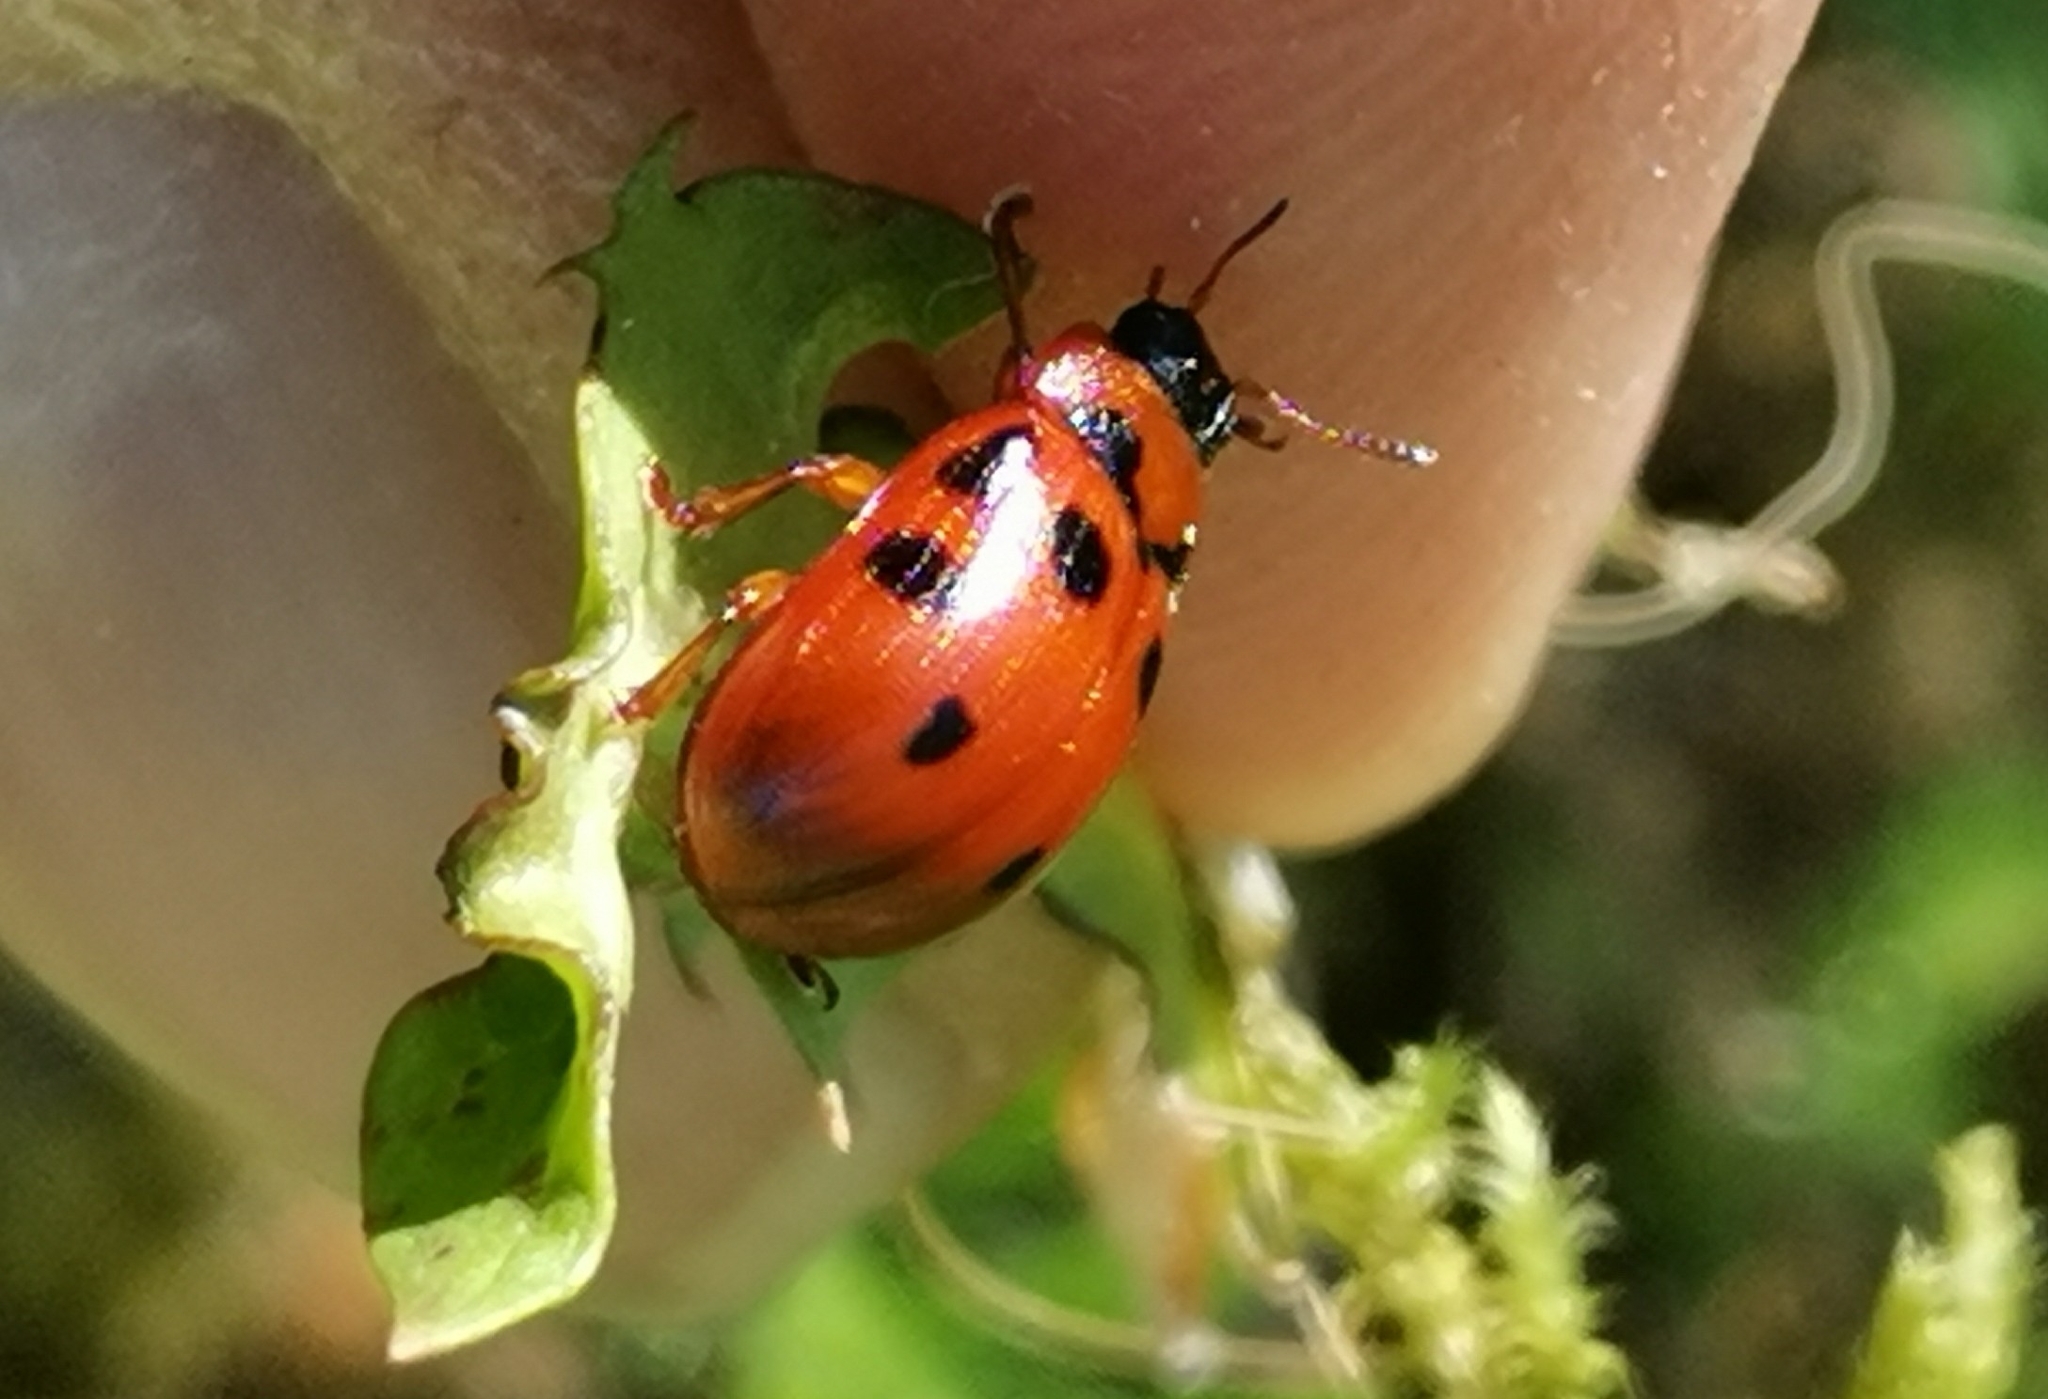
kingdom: Animalia
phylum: Arthropoda
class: Insecta
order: Coleoptera
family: Chrysomelidae
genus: Gonioctena
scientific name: Gonioctena decemnotata
